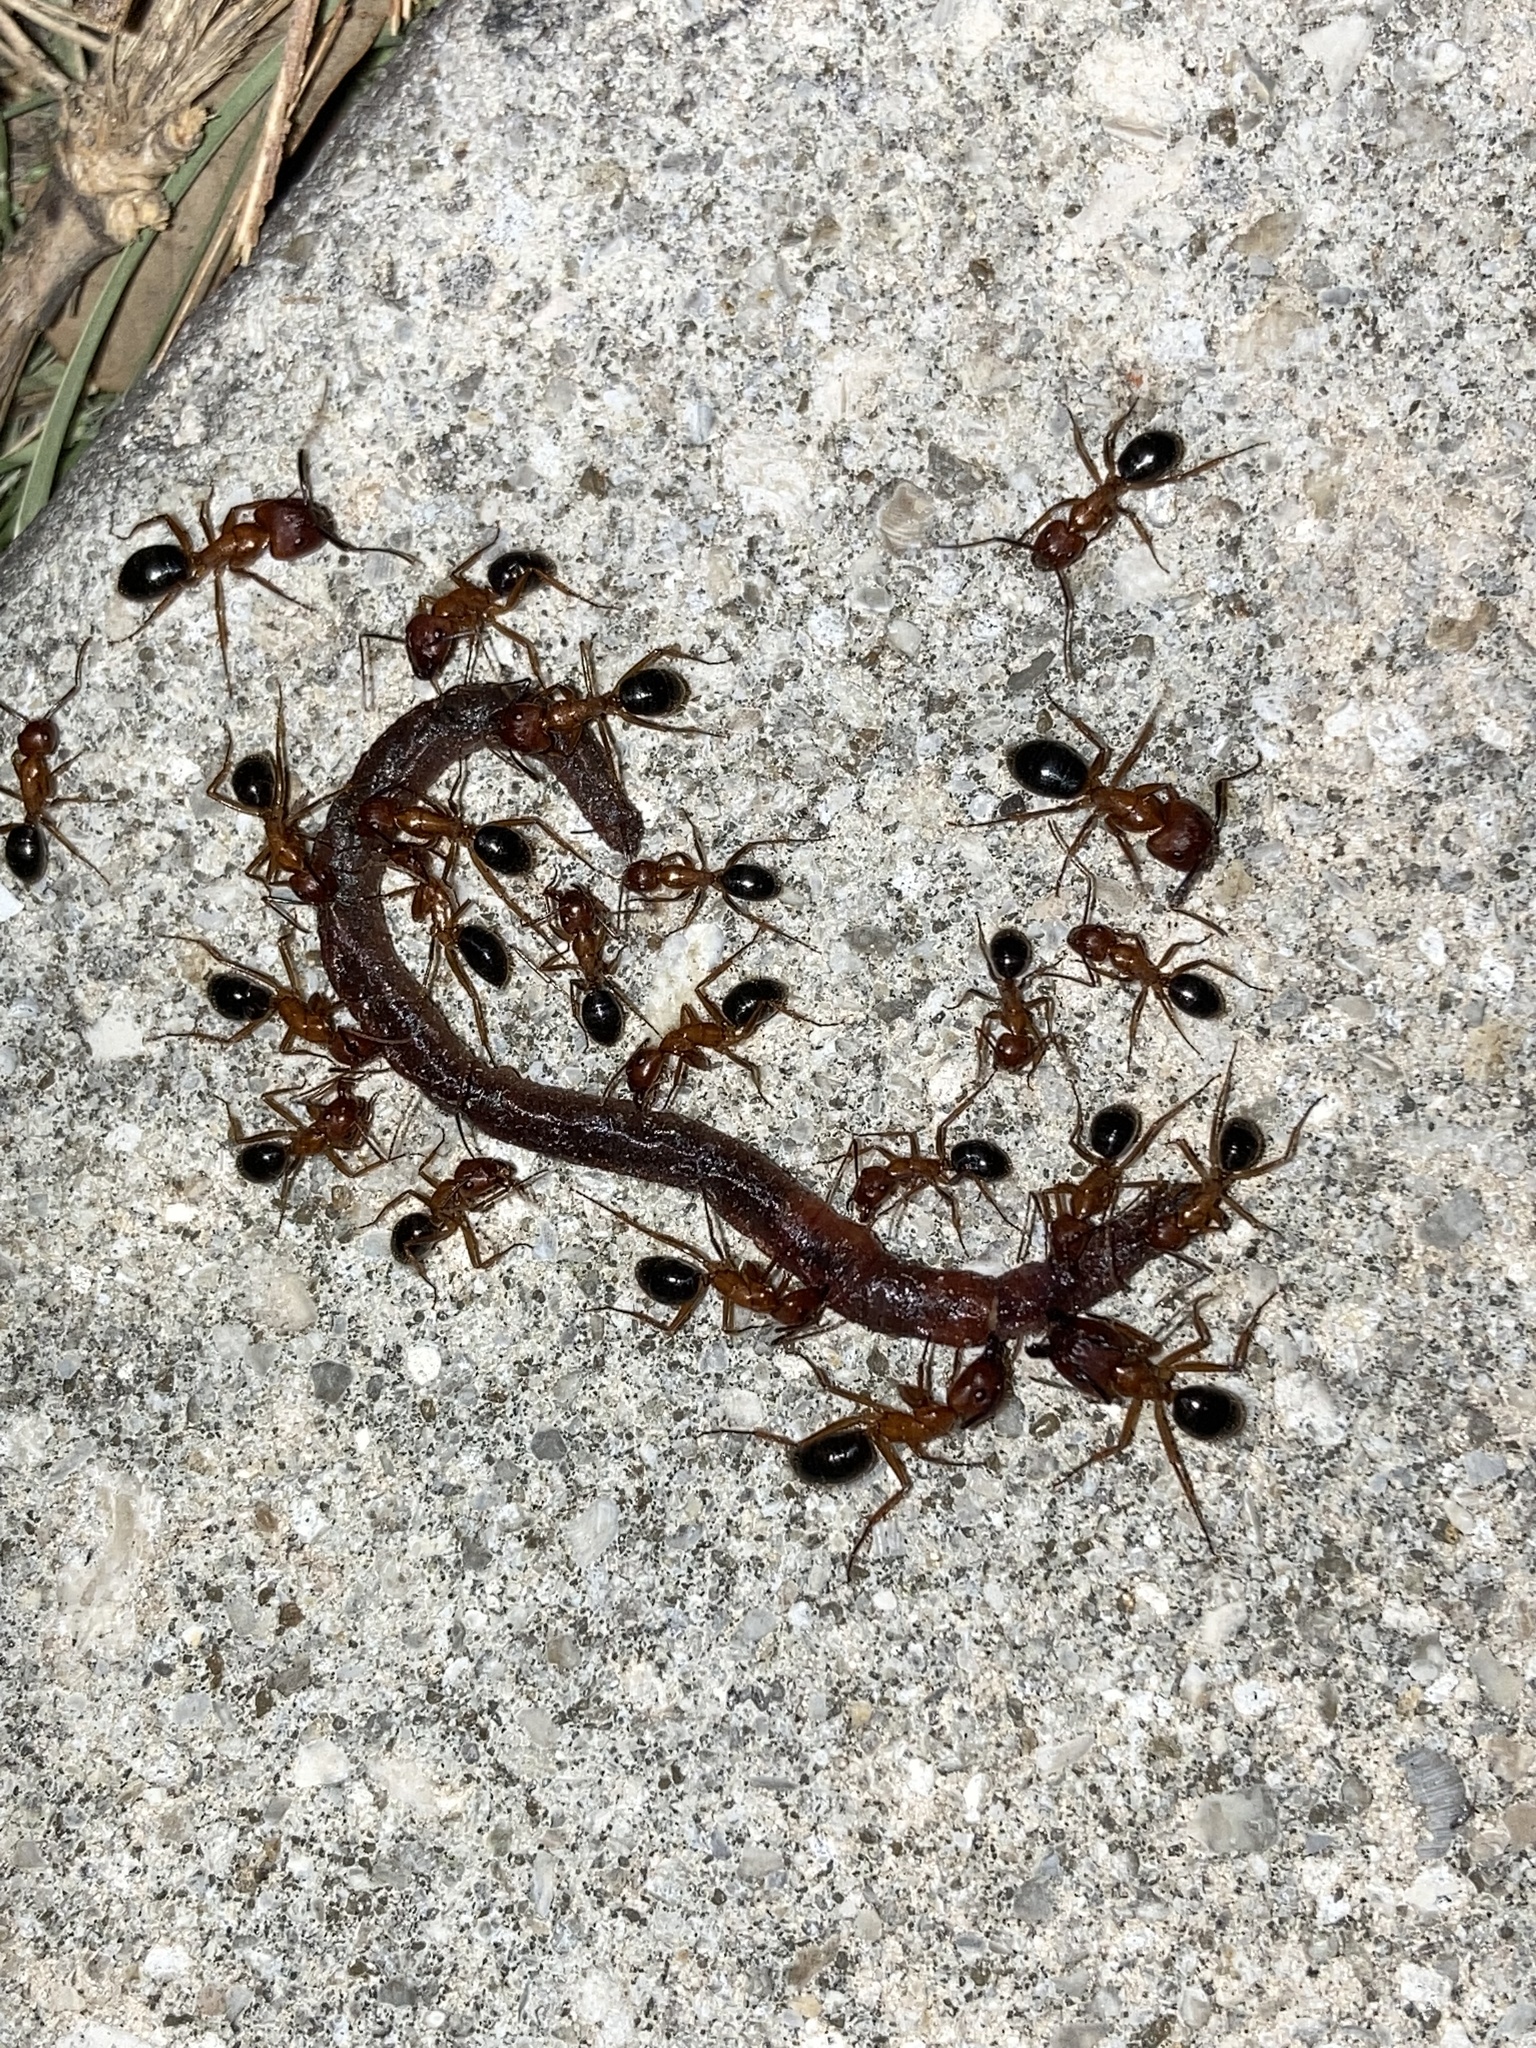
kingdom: Animalia
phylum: Arthropoda
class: Insecta
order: Hymenoptera
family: Formicidae
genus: Camponotus
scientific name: Camponotus floridanus
